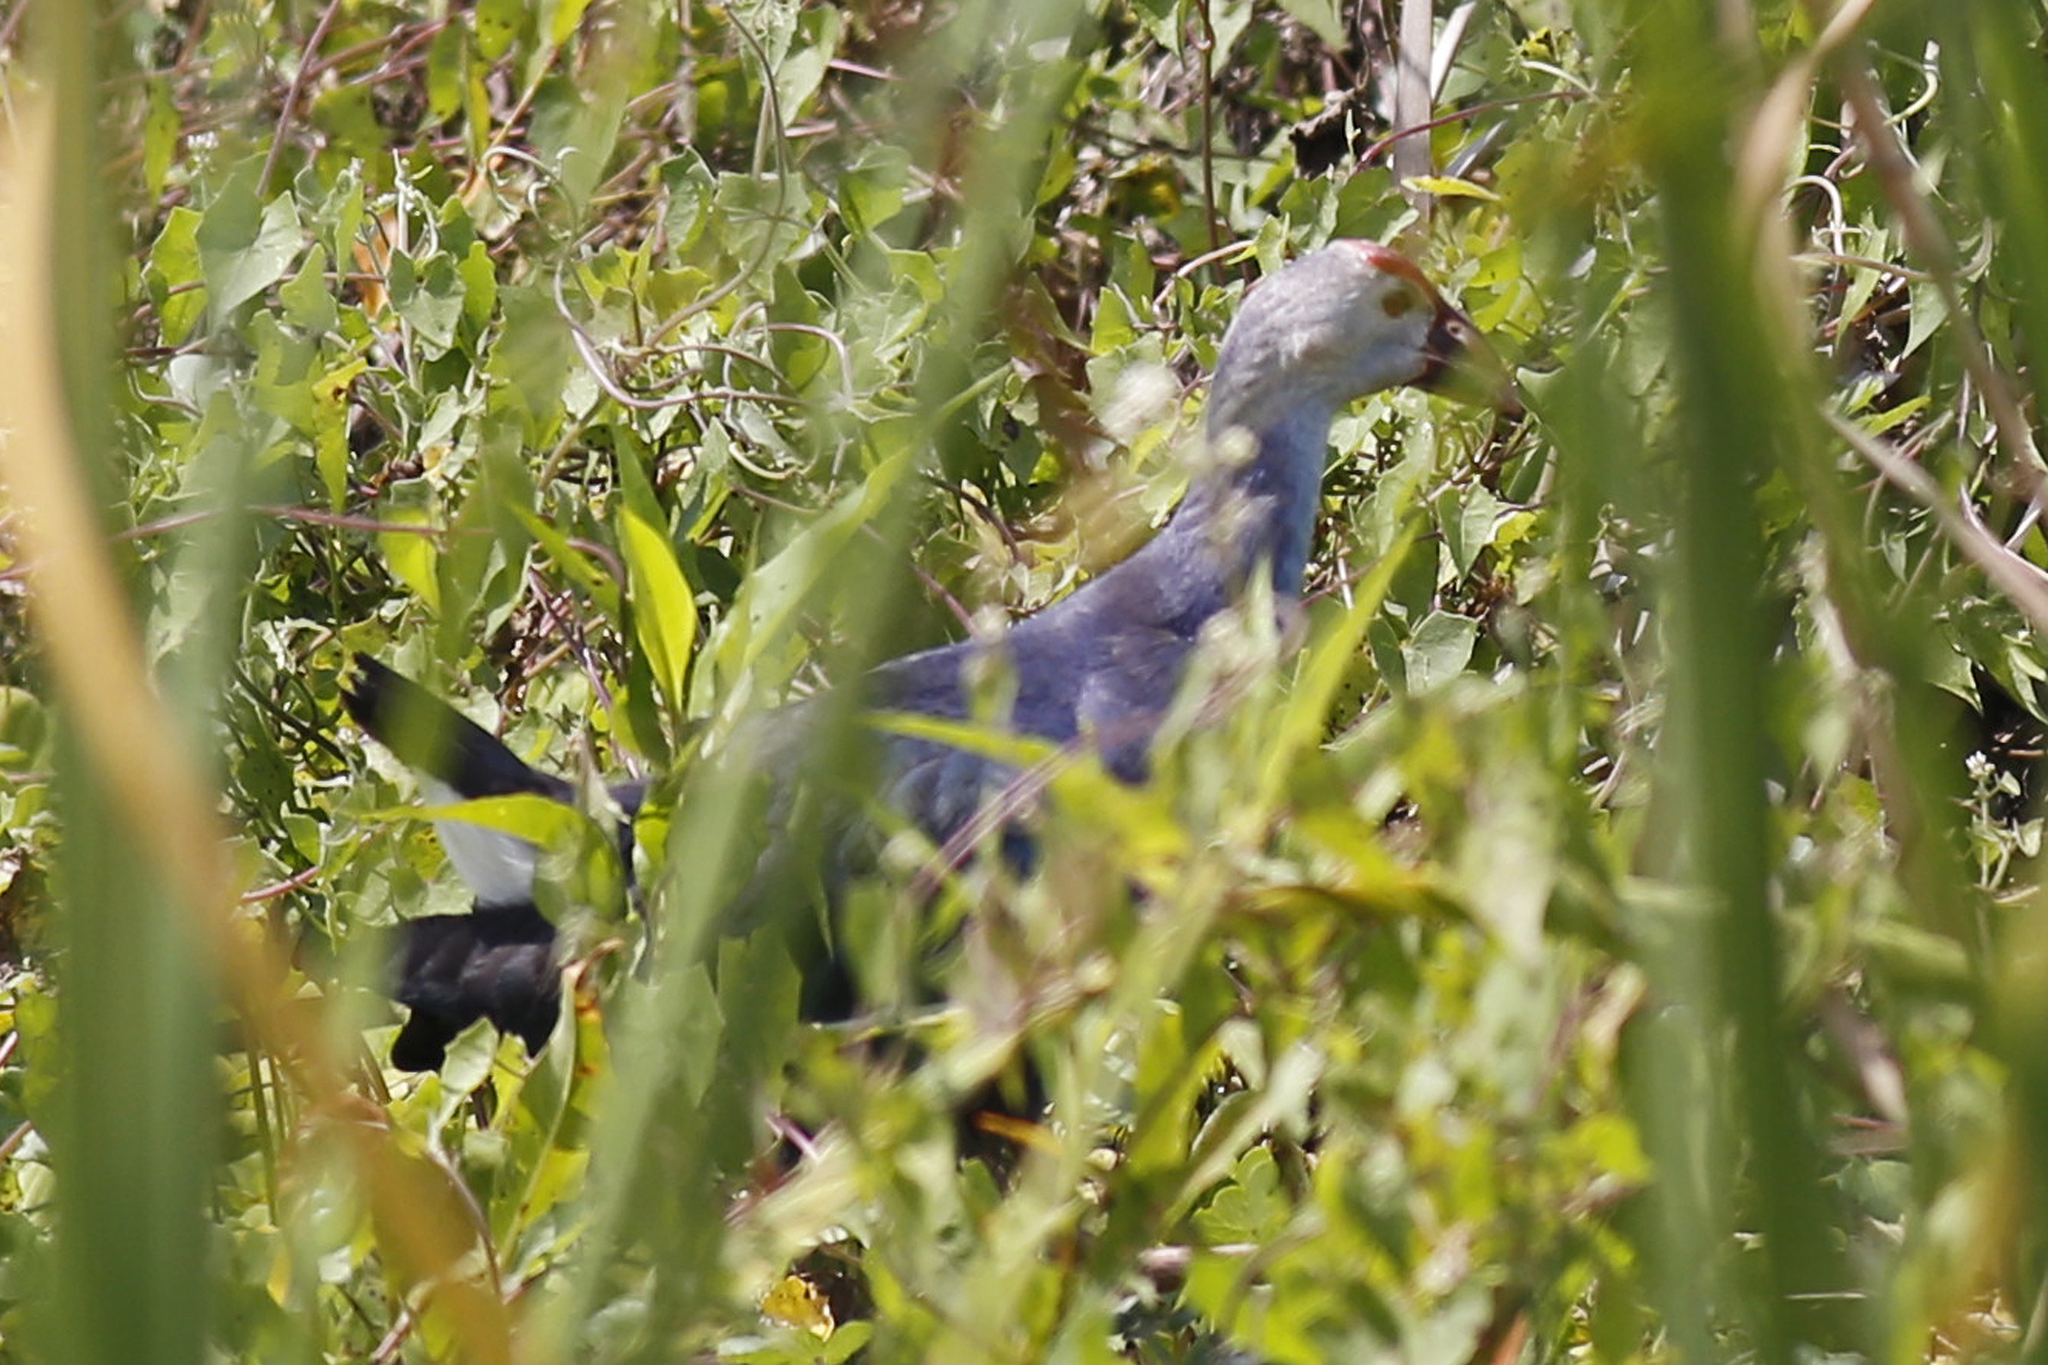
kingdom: Animalia
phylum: Chordata
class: Aves
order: Gruiformes
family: Rallidae
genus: Porphyrio
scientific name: Porphyrio porphyrio
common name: Purple swamphen
